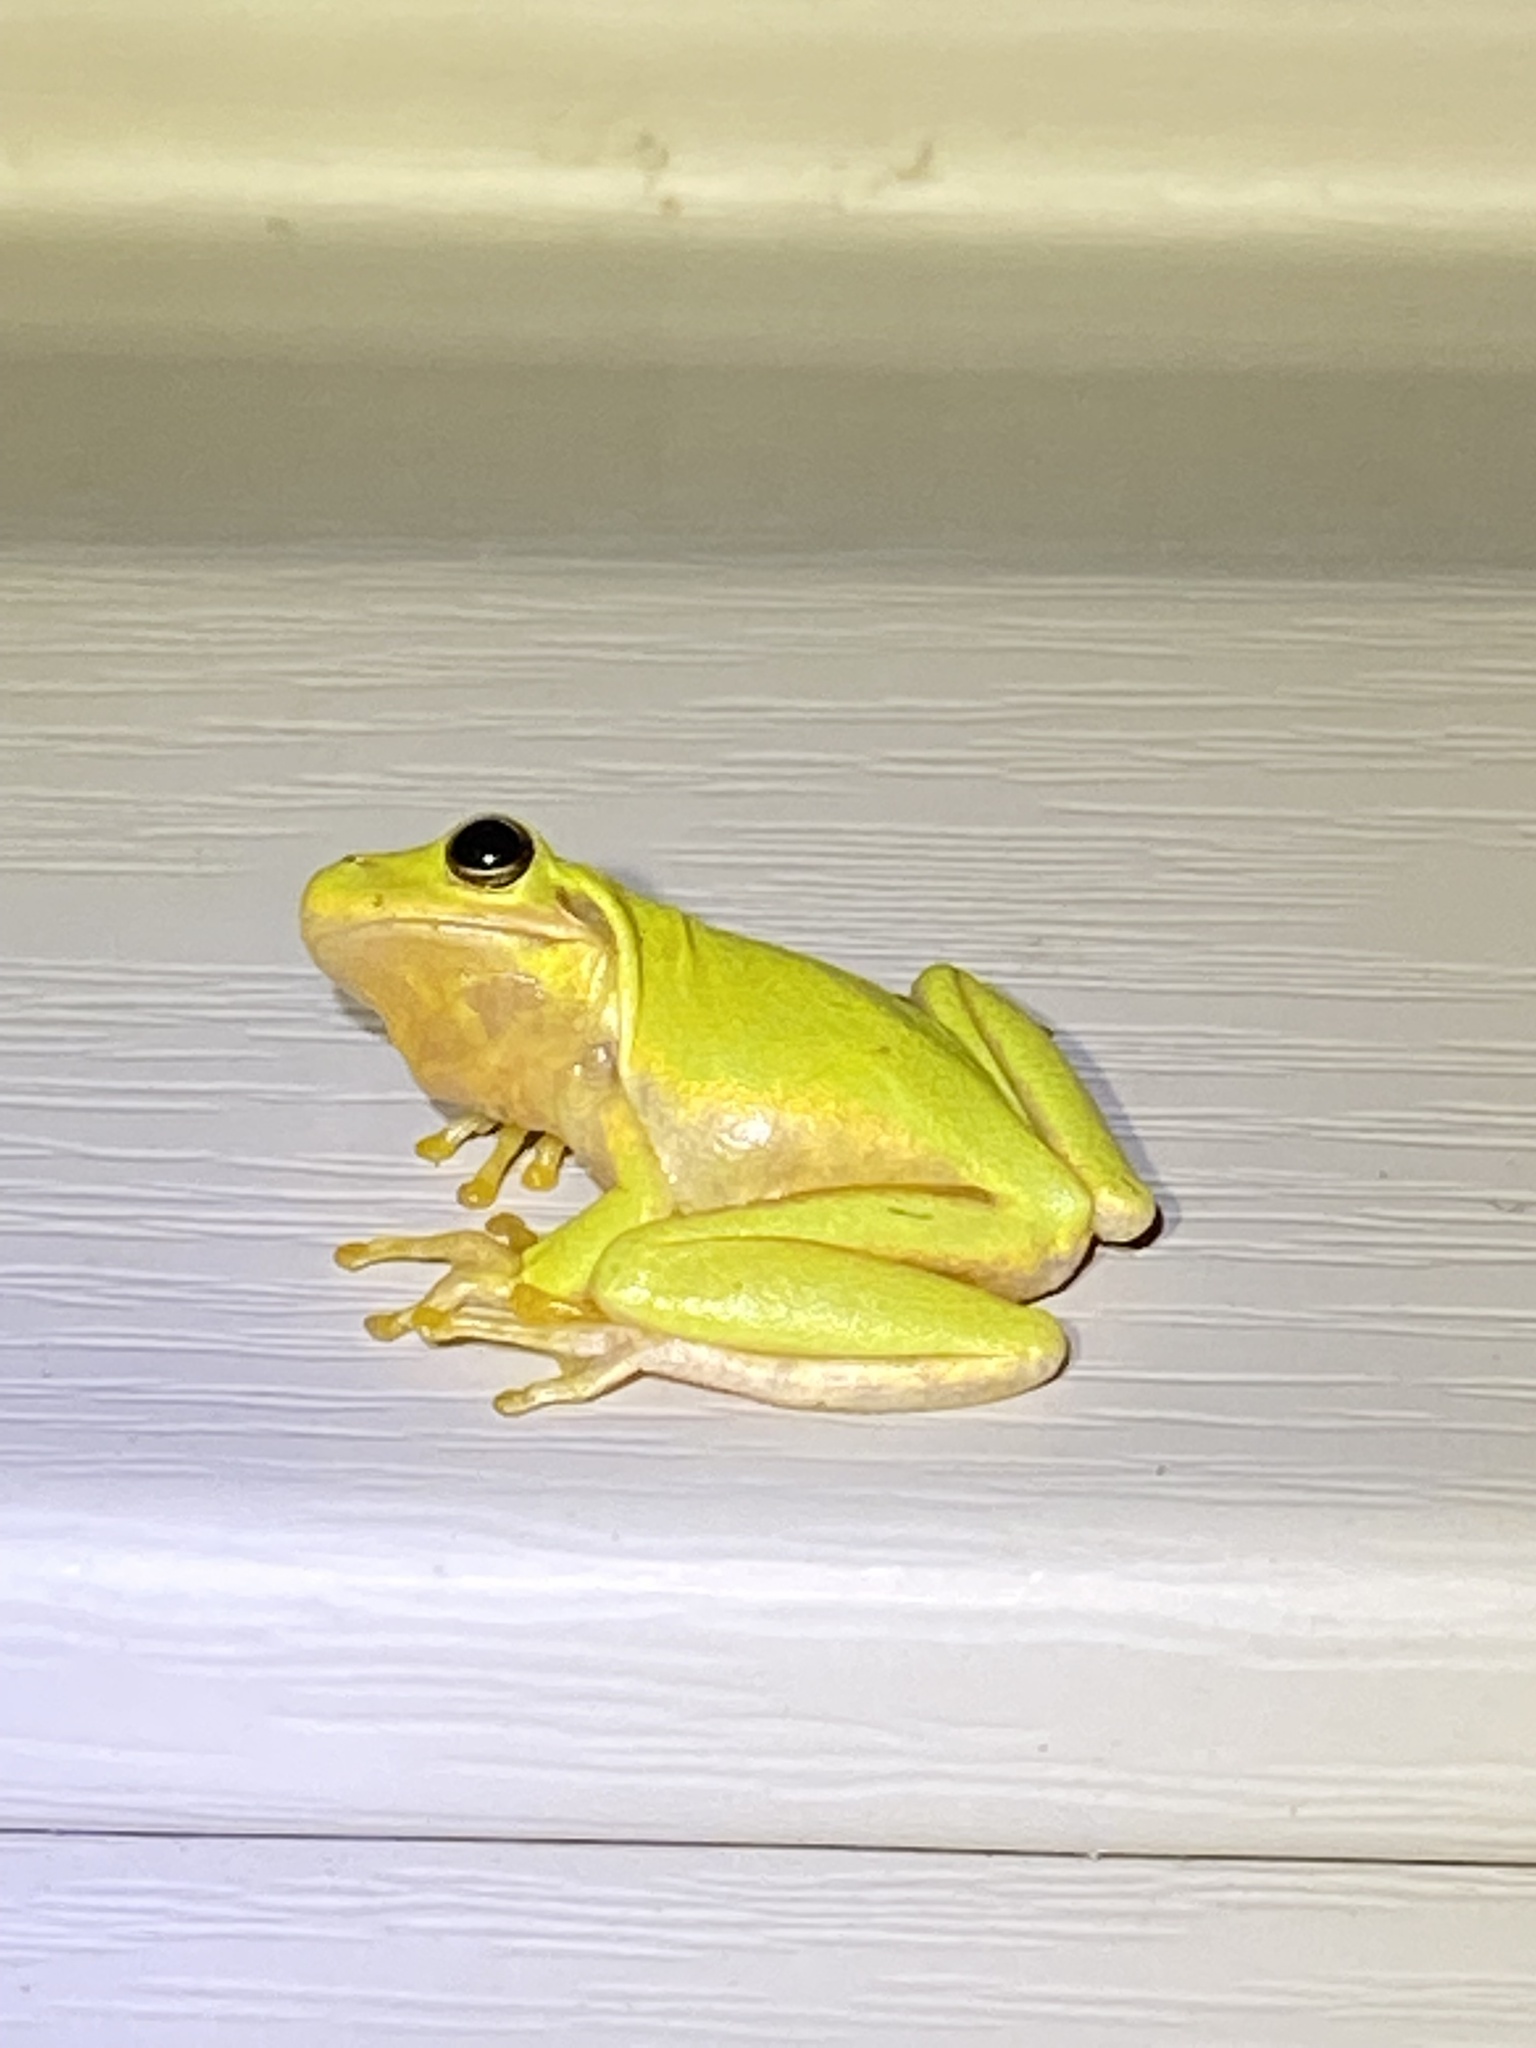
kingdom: Animalia
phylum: Chordata
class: Amphibia
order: Anura
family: Hylidae
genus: Dryophytes
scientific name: Dryophytes squirellus
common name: Squirrel treefrog
